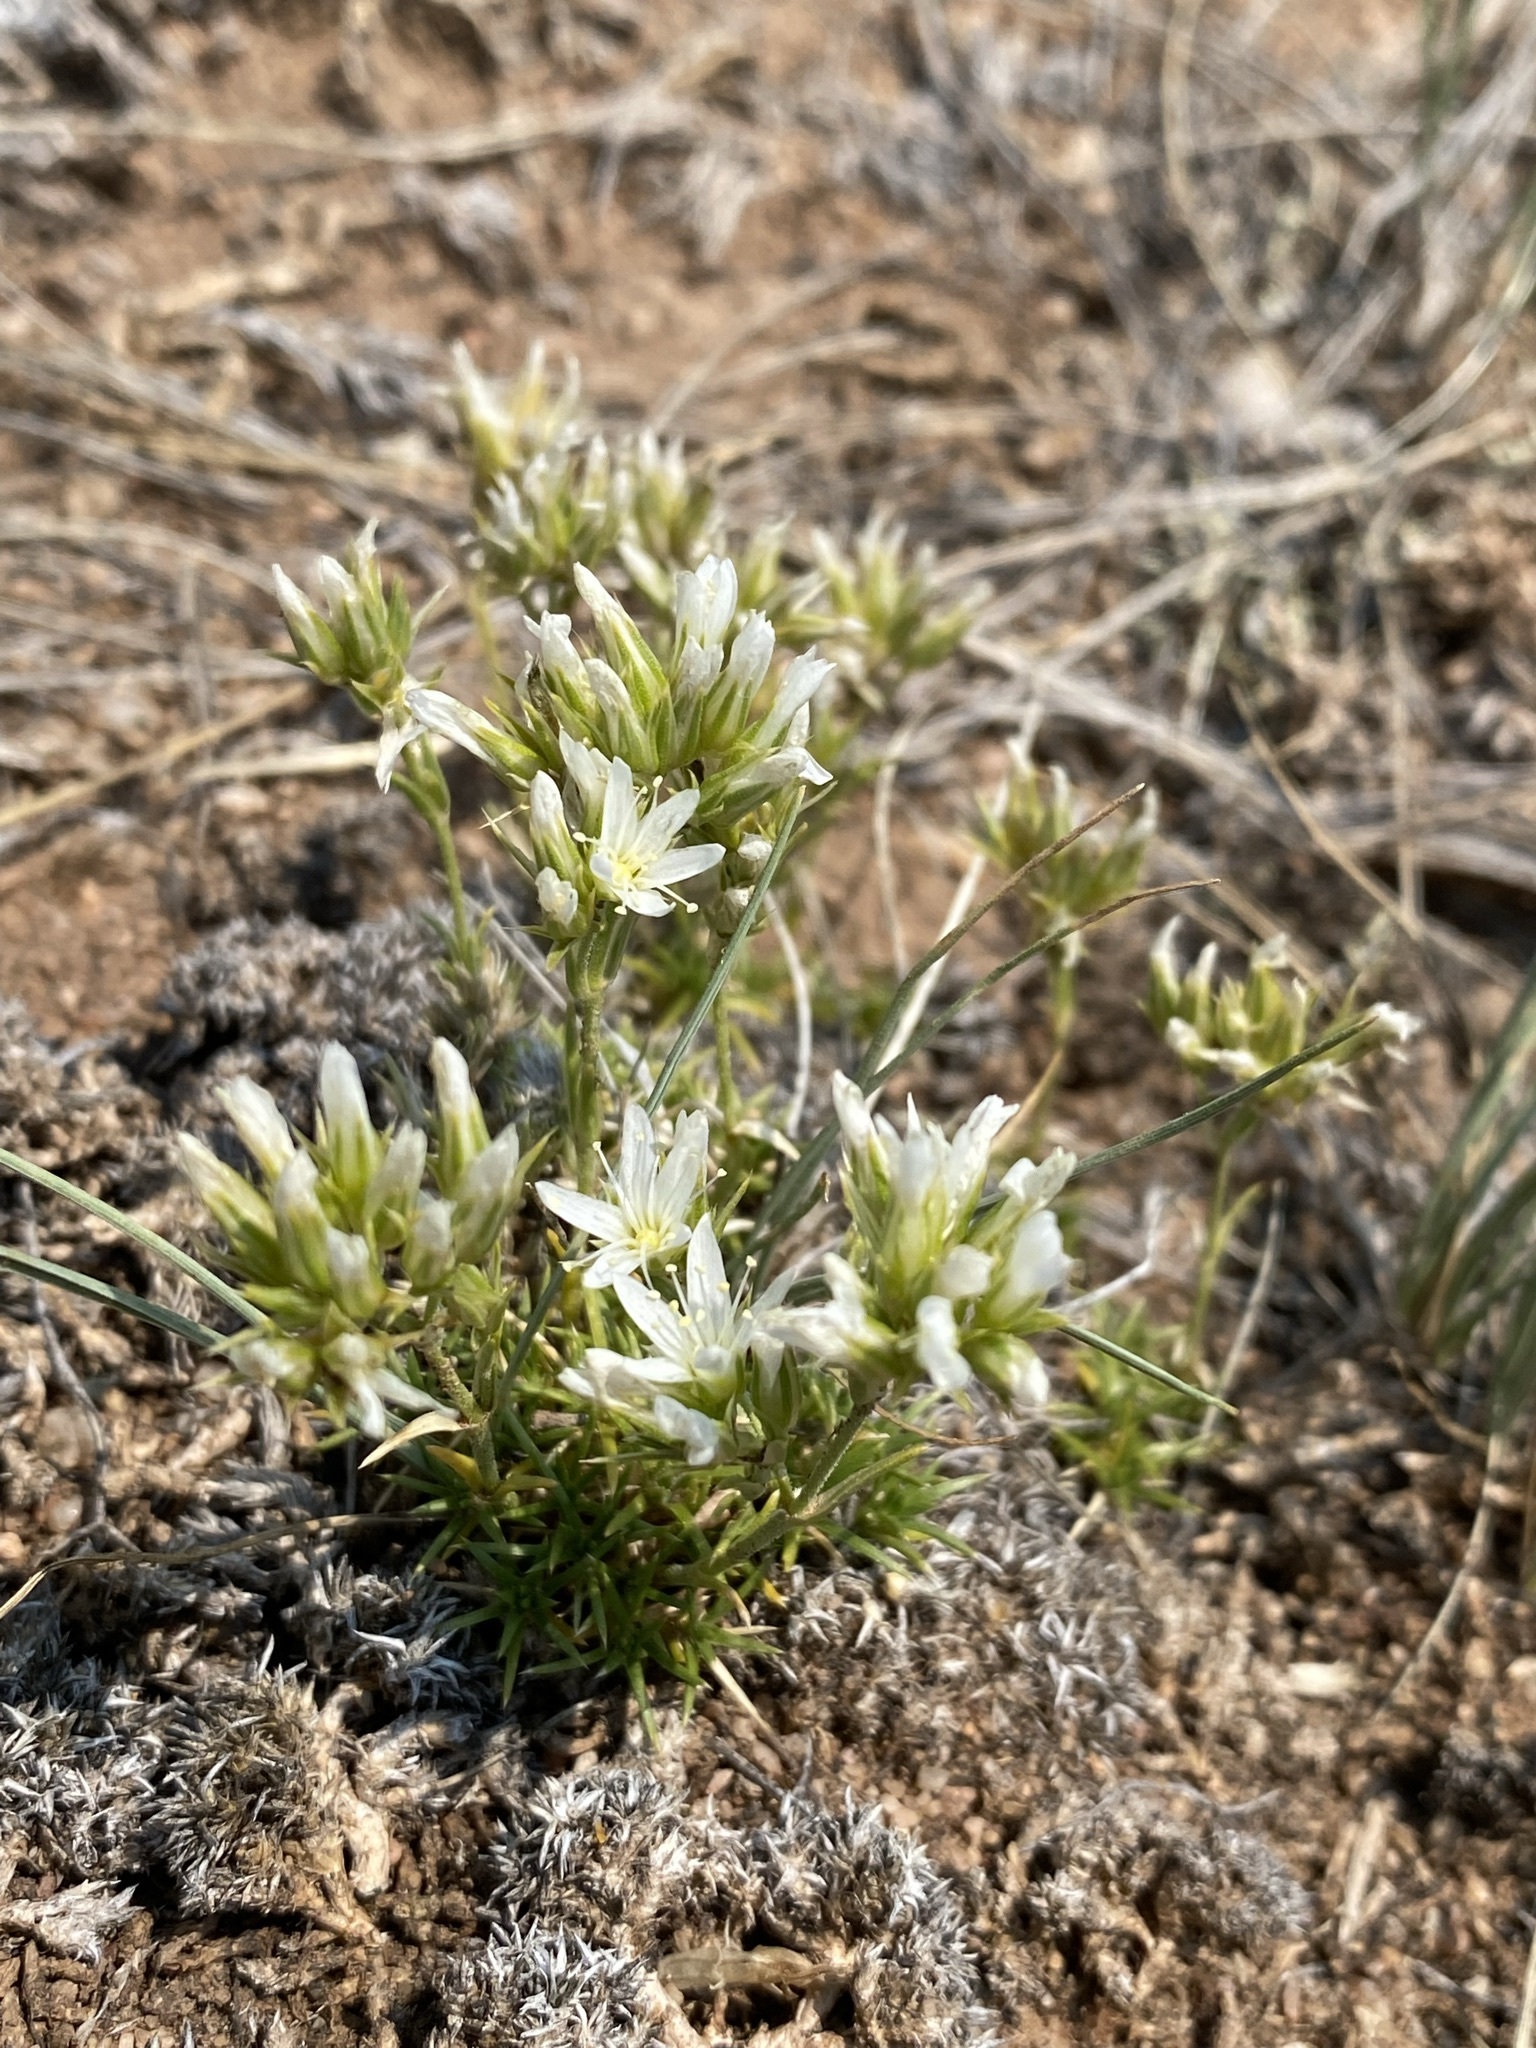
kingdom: Plantae
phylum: Tracheophyta
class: Magnoliopsida
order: Caryophyllales
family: Caryophyllaceae
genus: Eremogone
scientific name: Eremogone hookeri
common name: Hooker's sandwort
